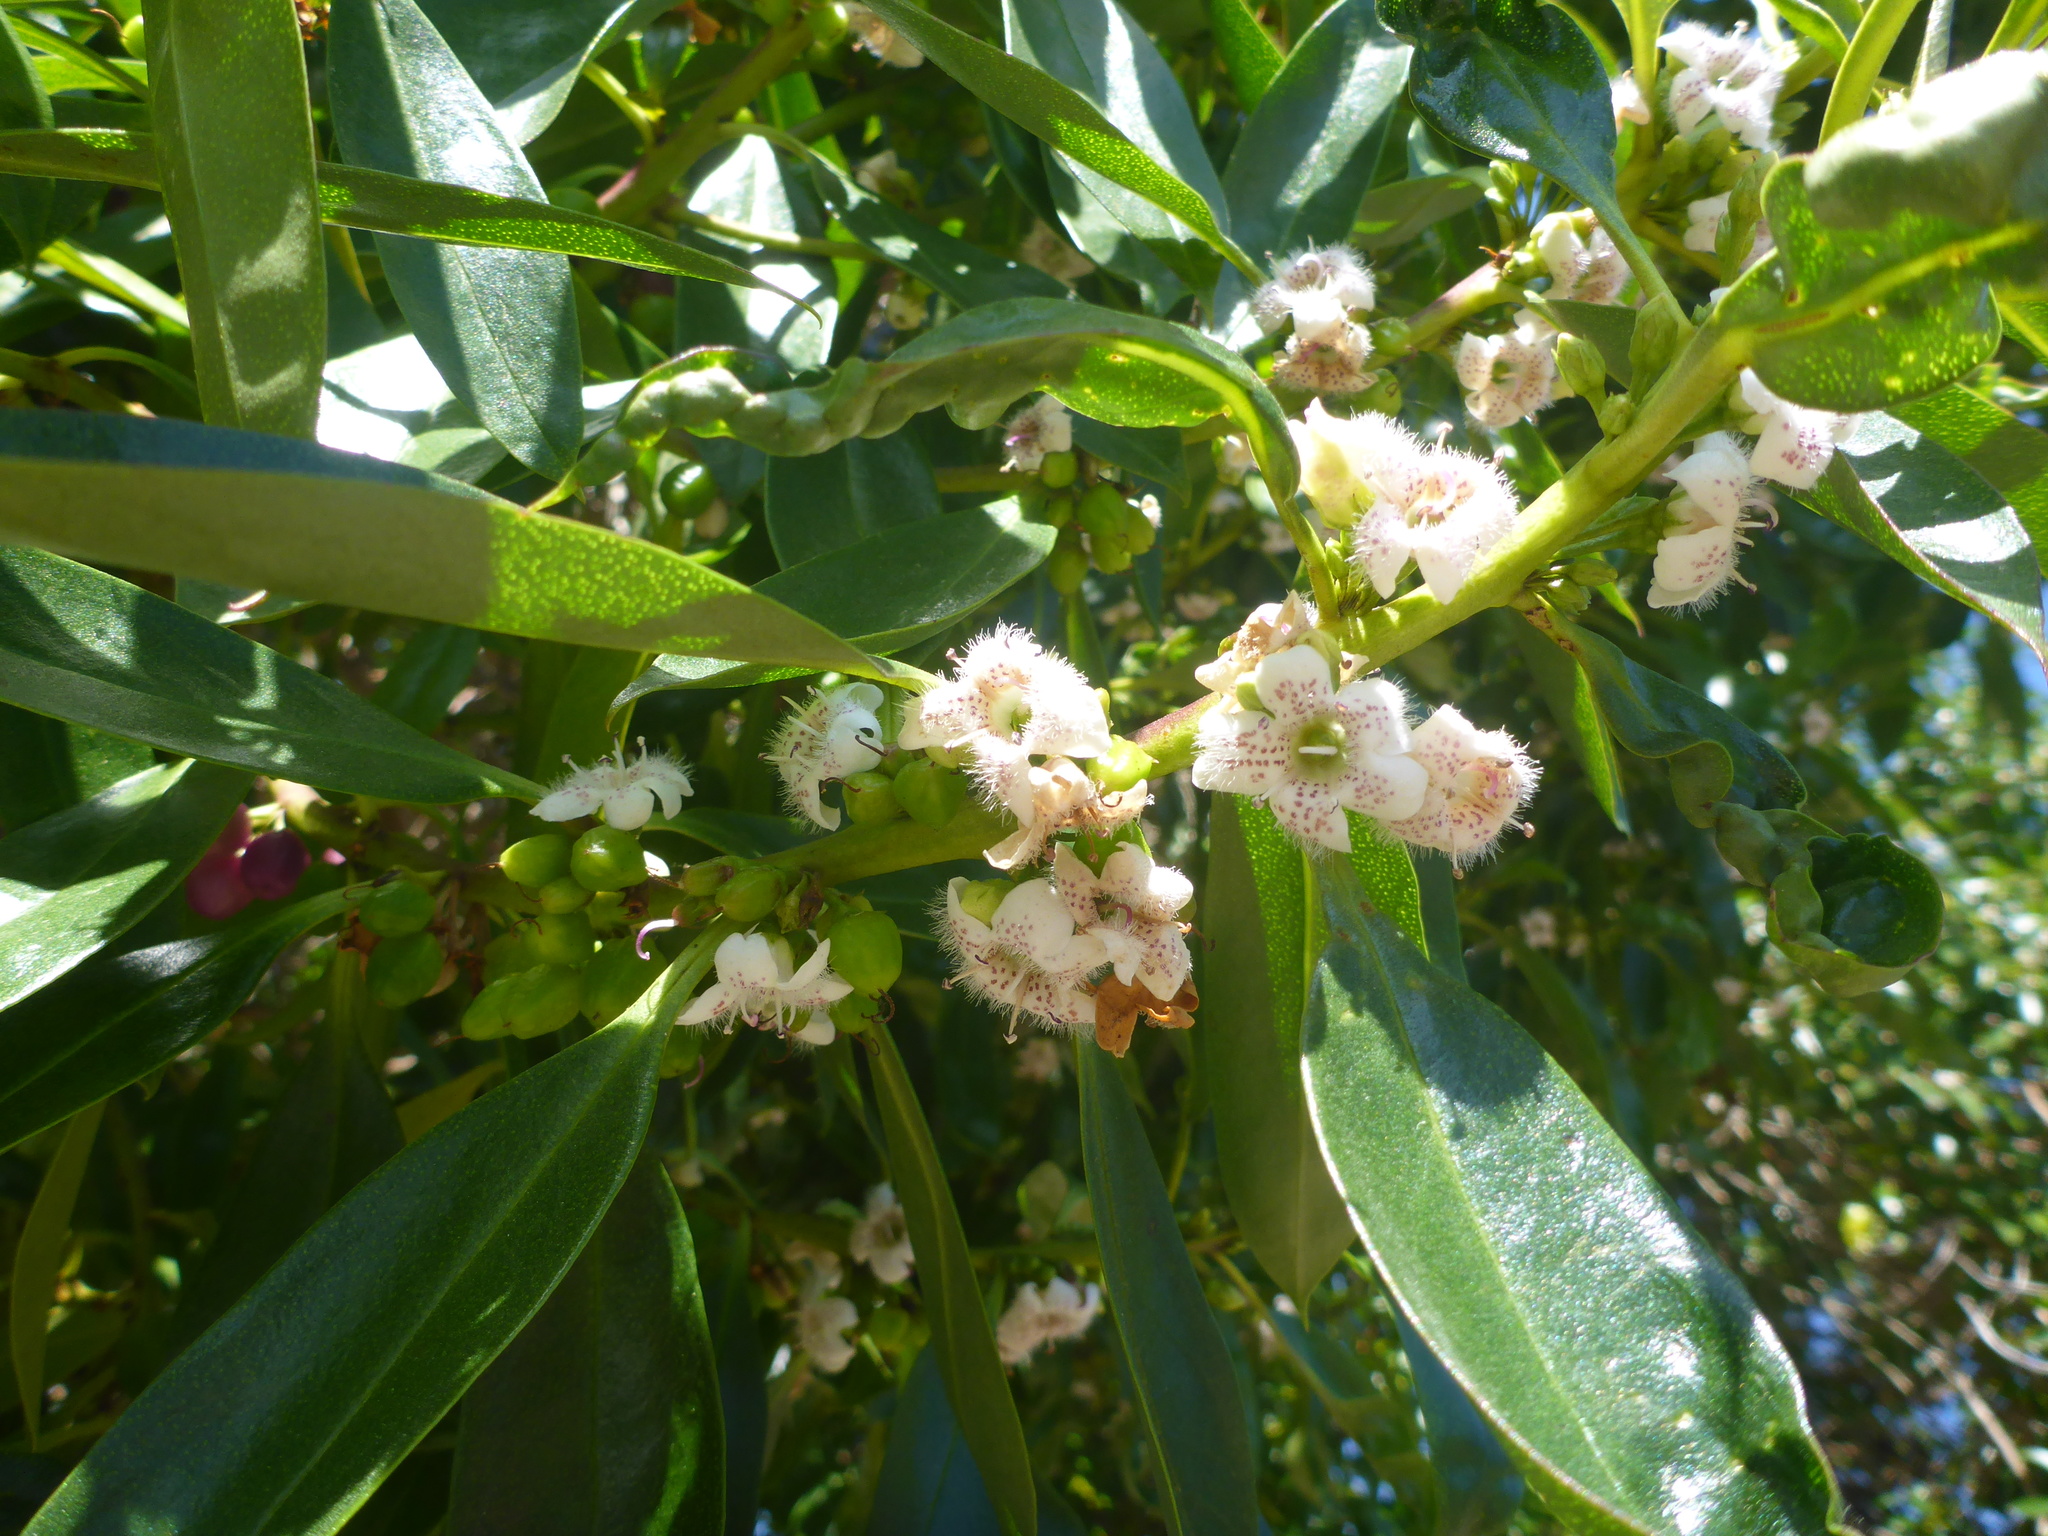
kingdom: Plantae
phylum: Tracheophyta
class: Magnoliopsida
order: Lamiales
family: Scrophulariaceae
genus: Myoporum
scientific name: Myoporum laetum
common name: Ngaio tree
